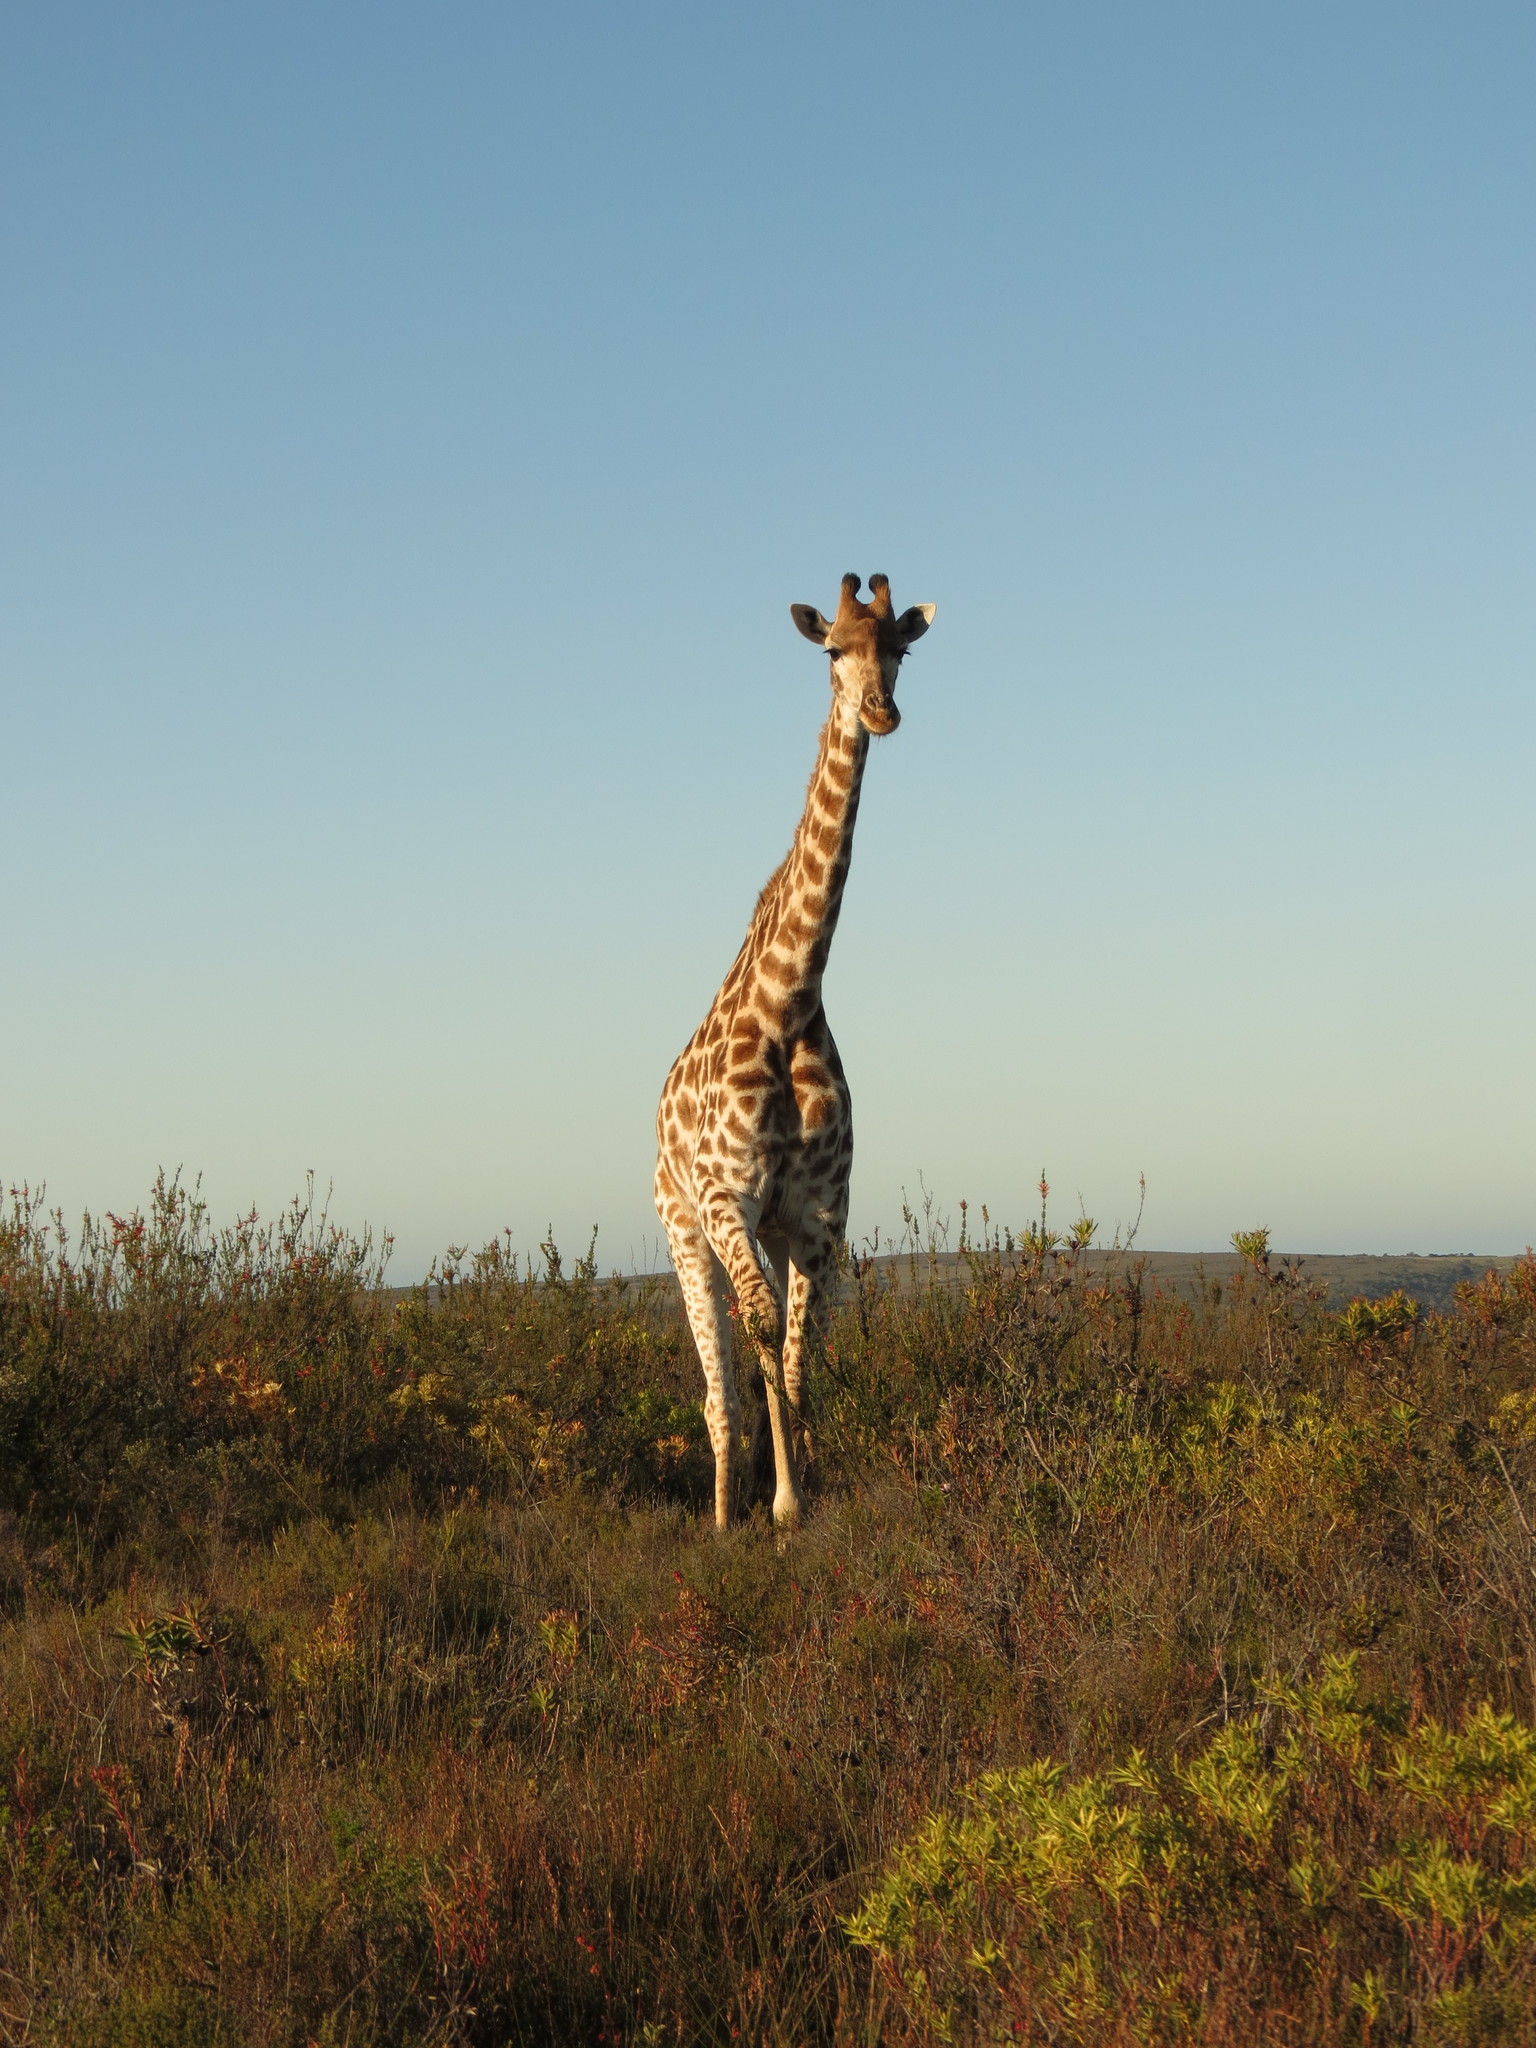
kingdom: Animalia
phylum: Chordata
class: Mammalia
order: Artiodactyla
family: Giraffidae
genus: Giraffa
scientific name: Giraffa giraffa
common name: Southern giraffe
